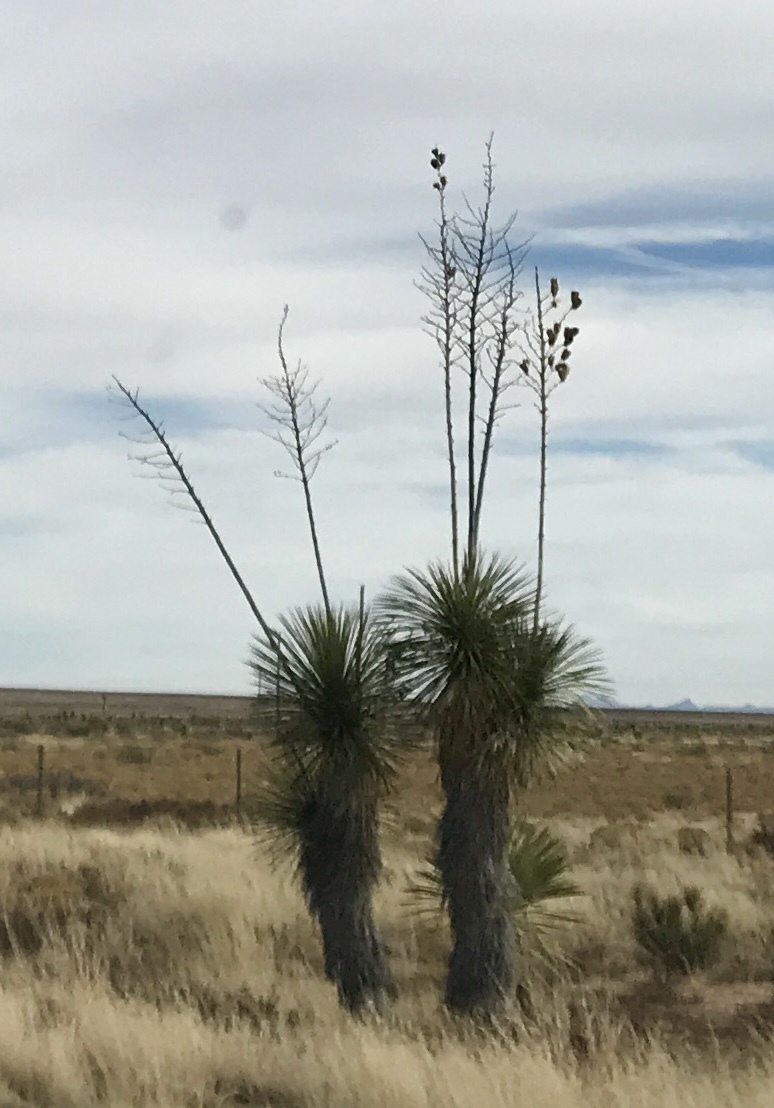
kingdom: Plantae
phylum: Tracheophyta
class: Liliopsida
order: Asparagales
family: Asparagaceae
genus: Yucca
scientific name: Yucca elata
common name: Palmella
